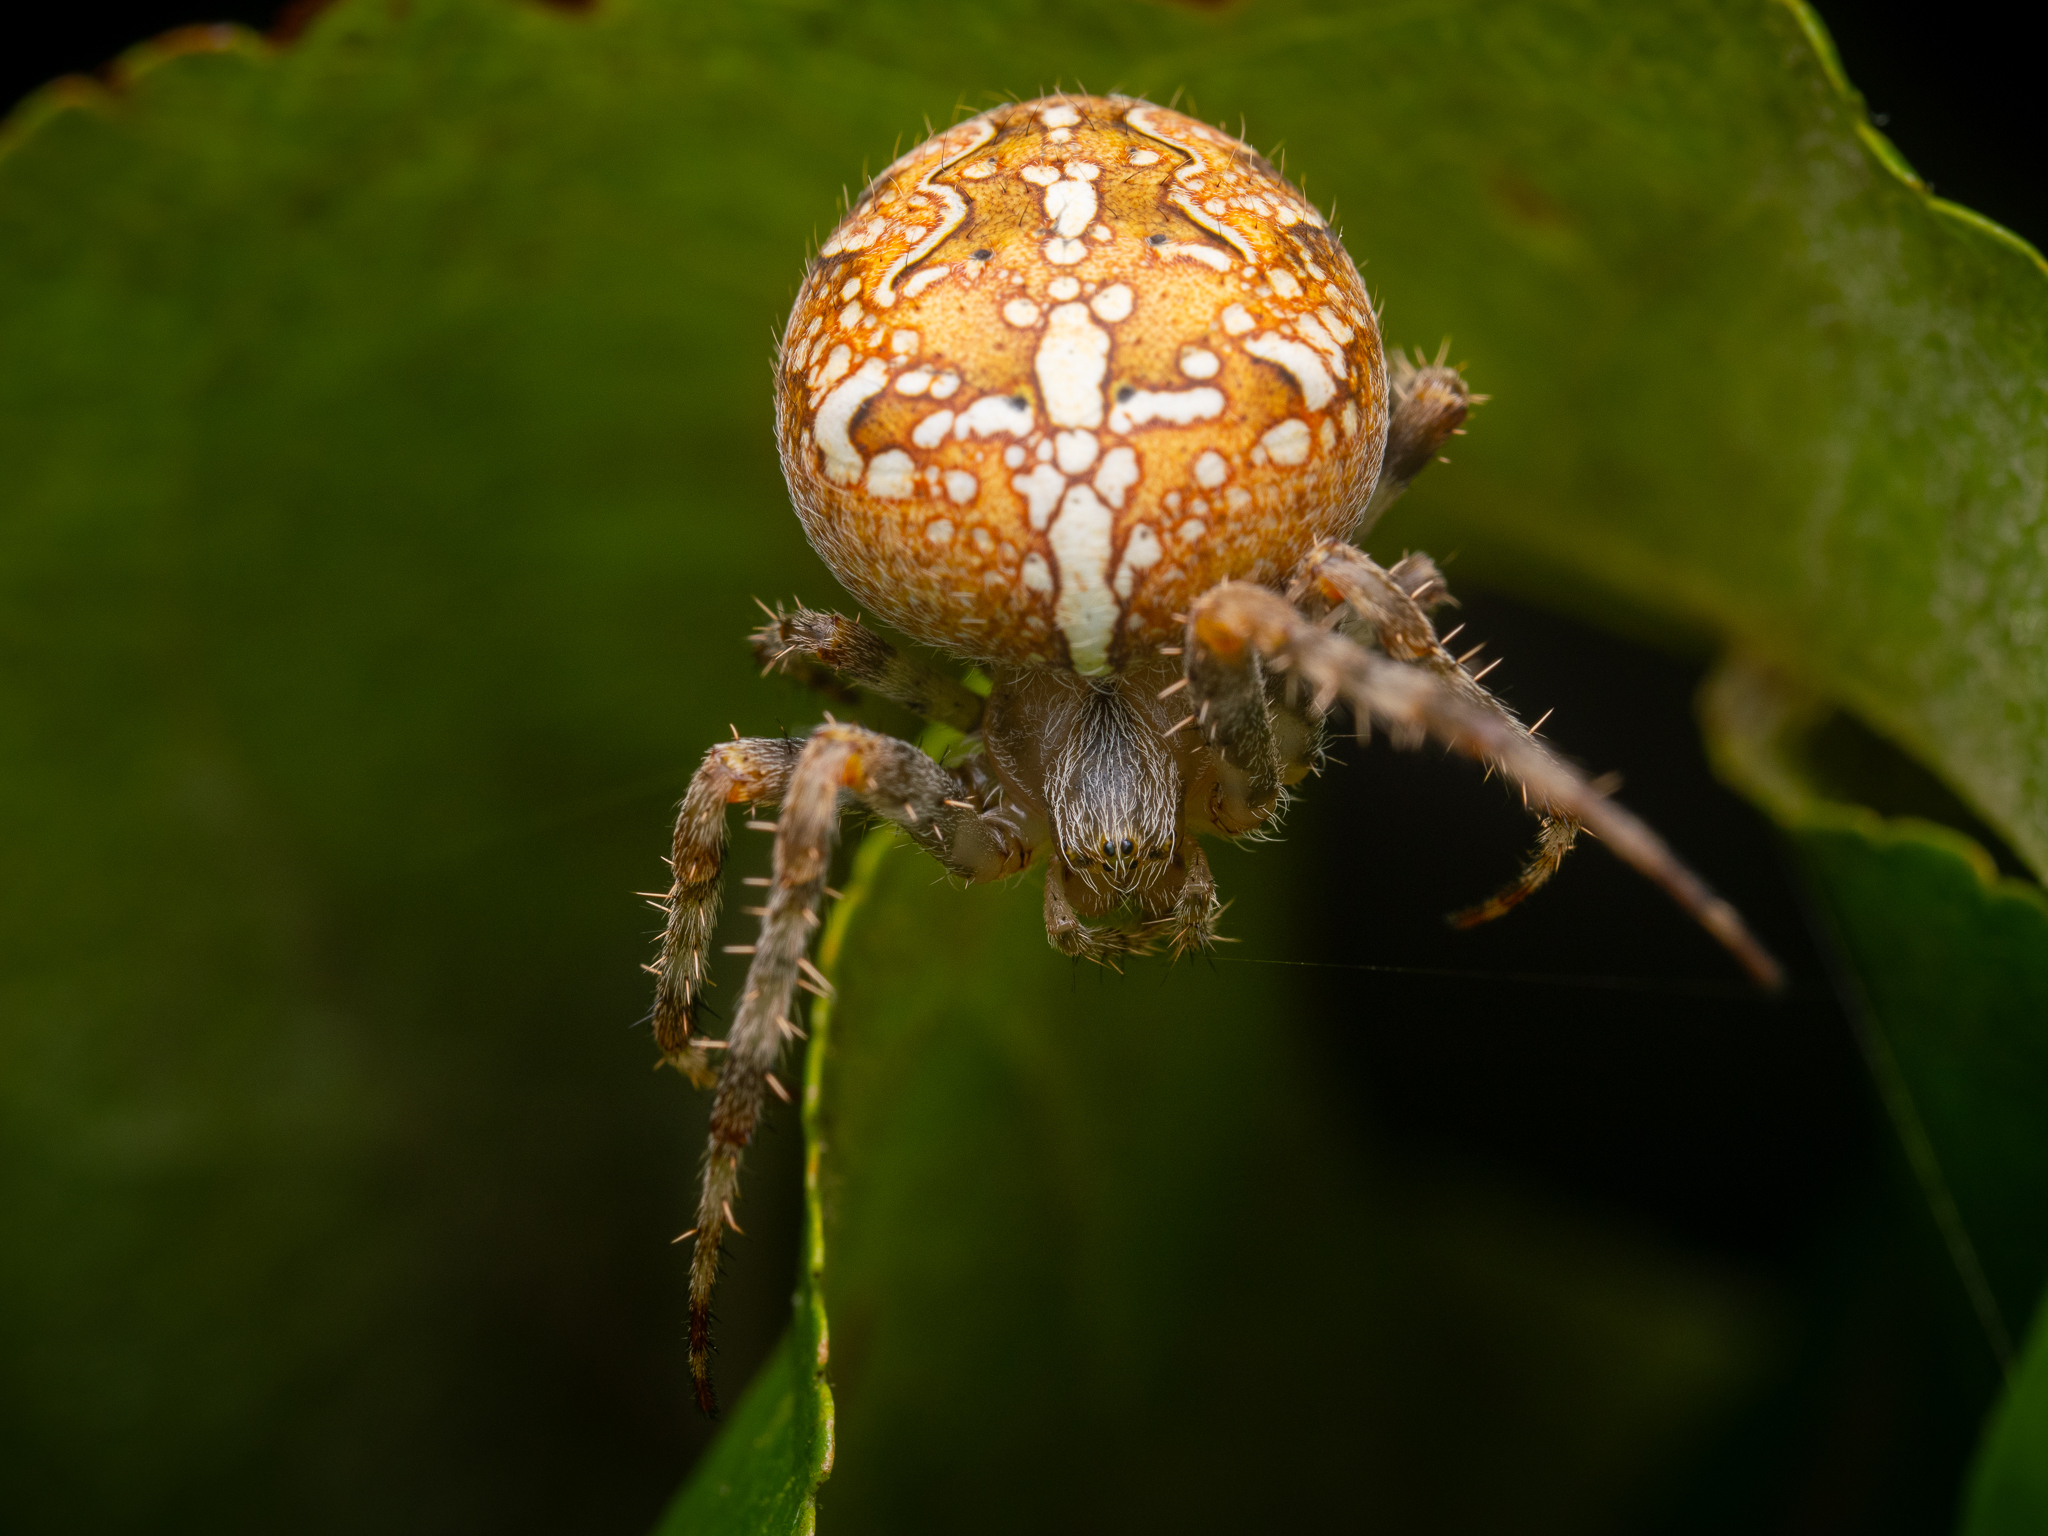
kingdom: Animalia
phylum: Arthropoda
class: Arachnida
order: Araneae
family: Araneidae
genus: Araneus
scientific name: Araneus diadematus
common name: Cross orbweaver
